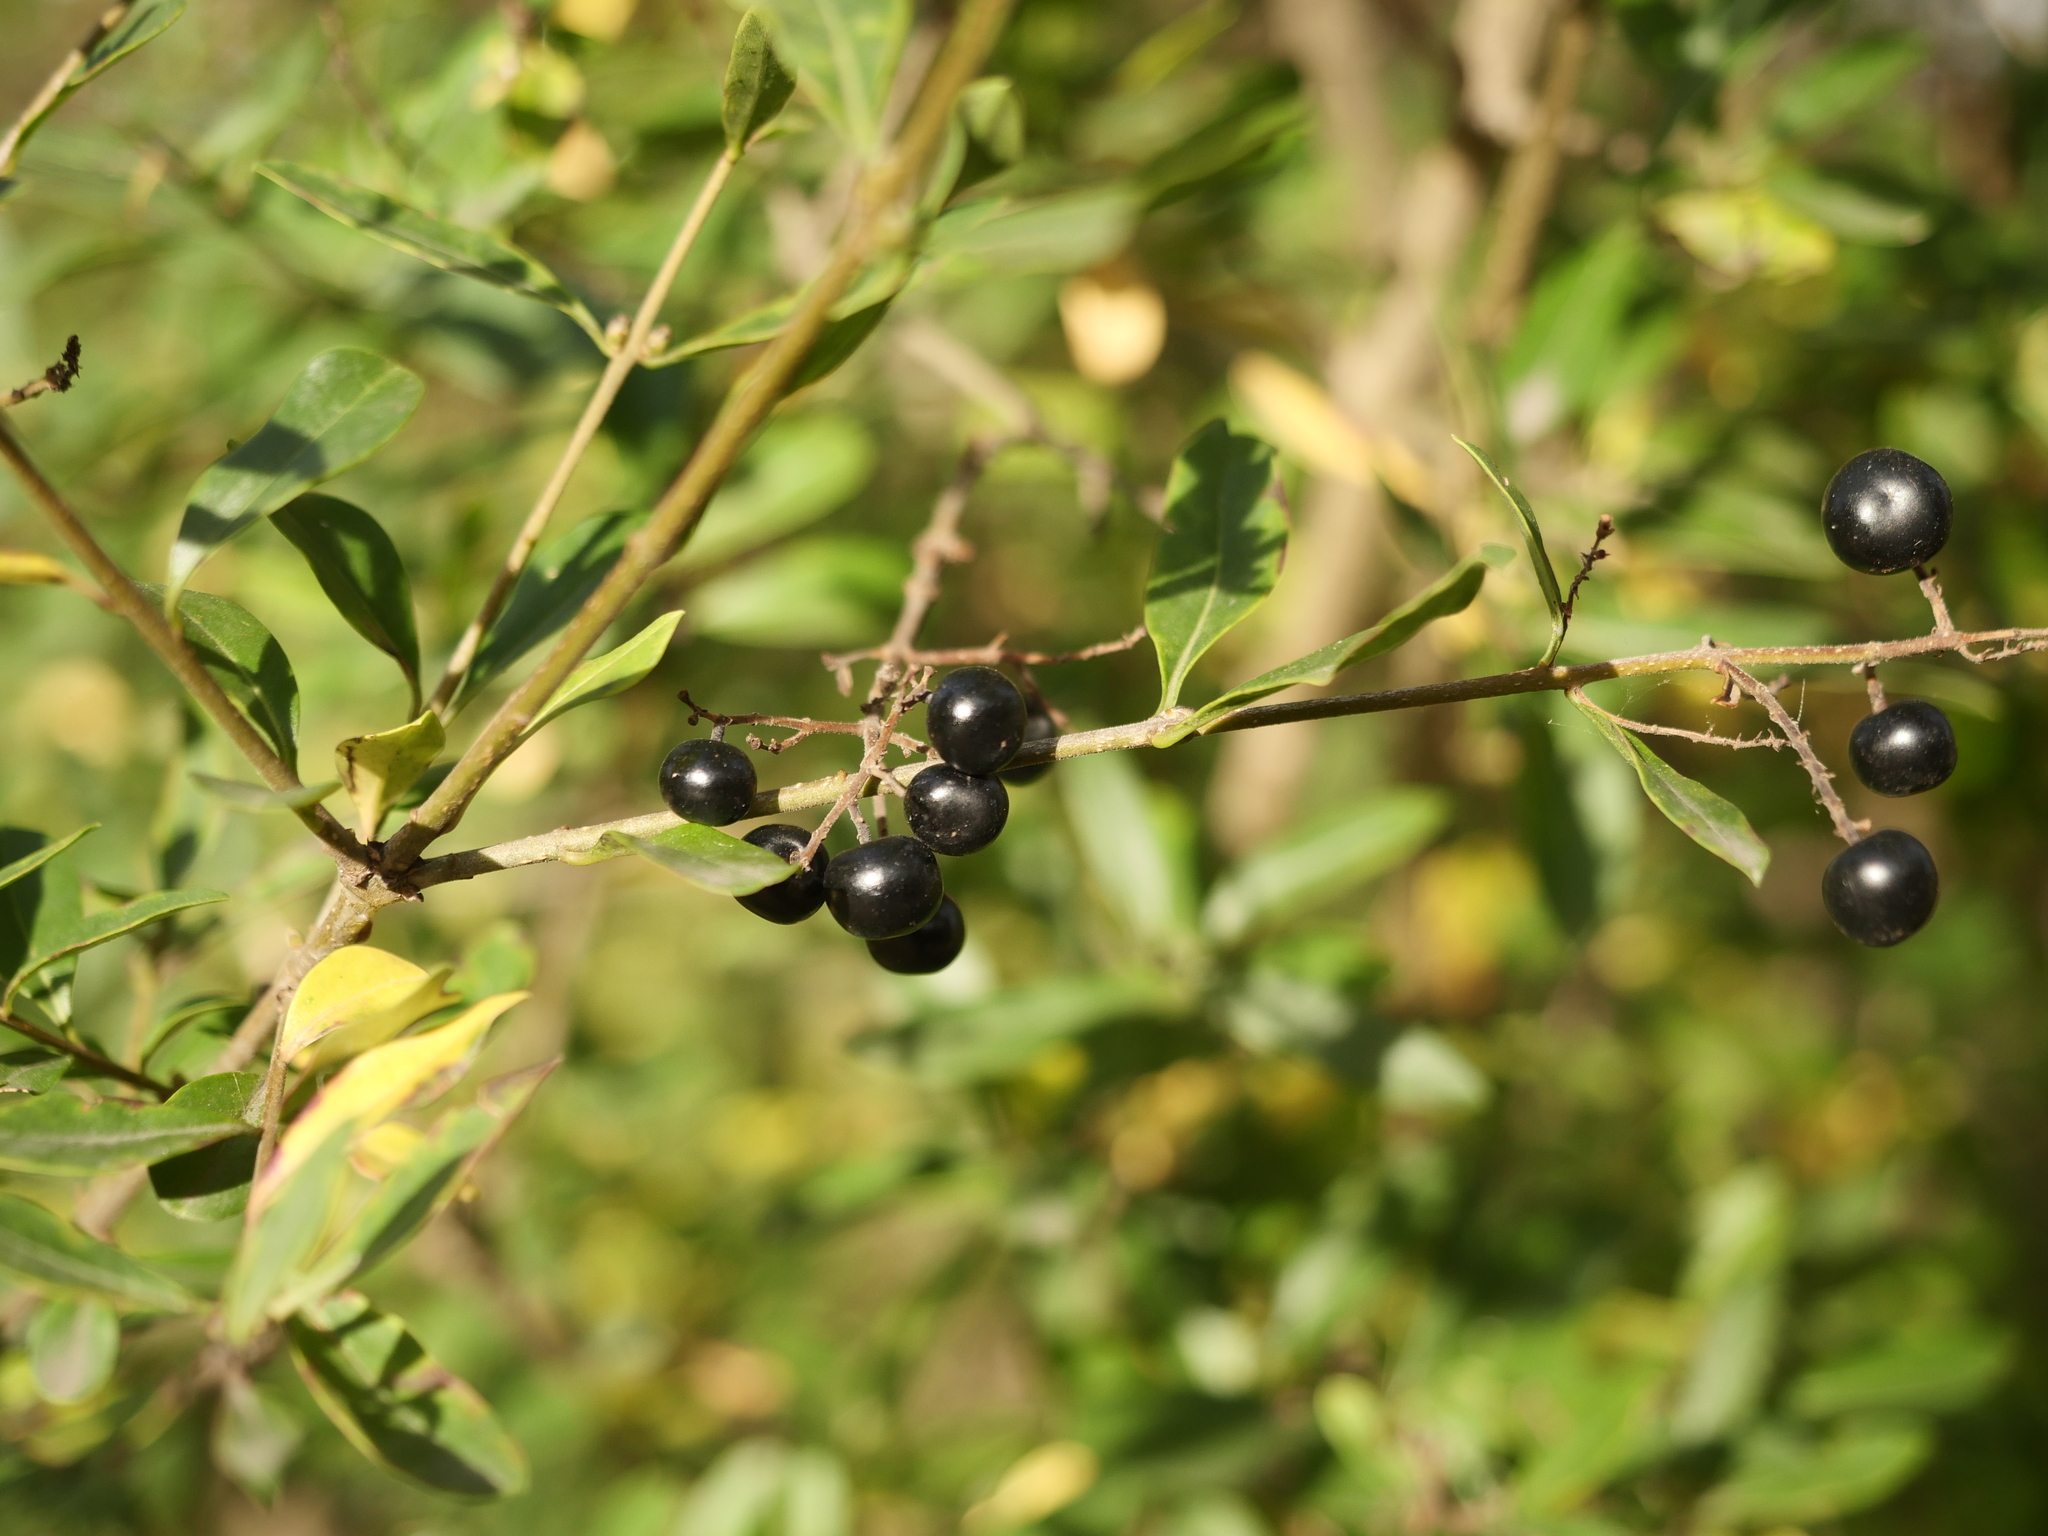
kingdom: Plantae
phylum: Tracheophyta
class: Magnoliopsida
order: Lamiales
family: Oleaceae
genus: Ligustrum
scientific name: Ligustrum vulgare
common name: Wild privet
